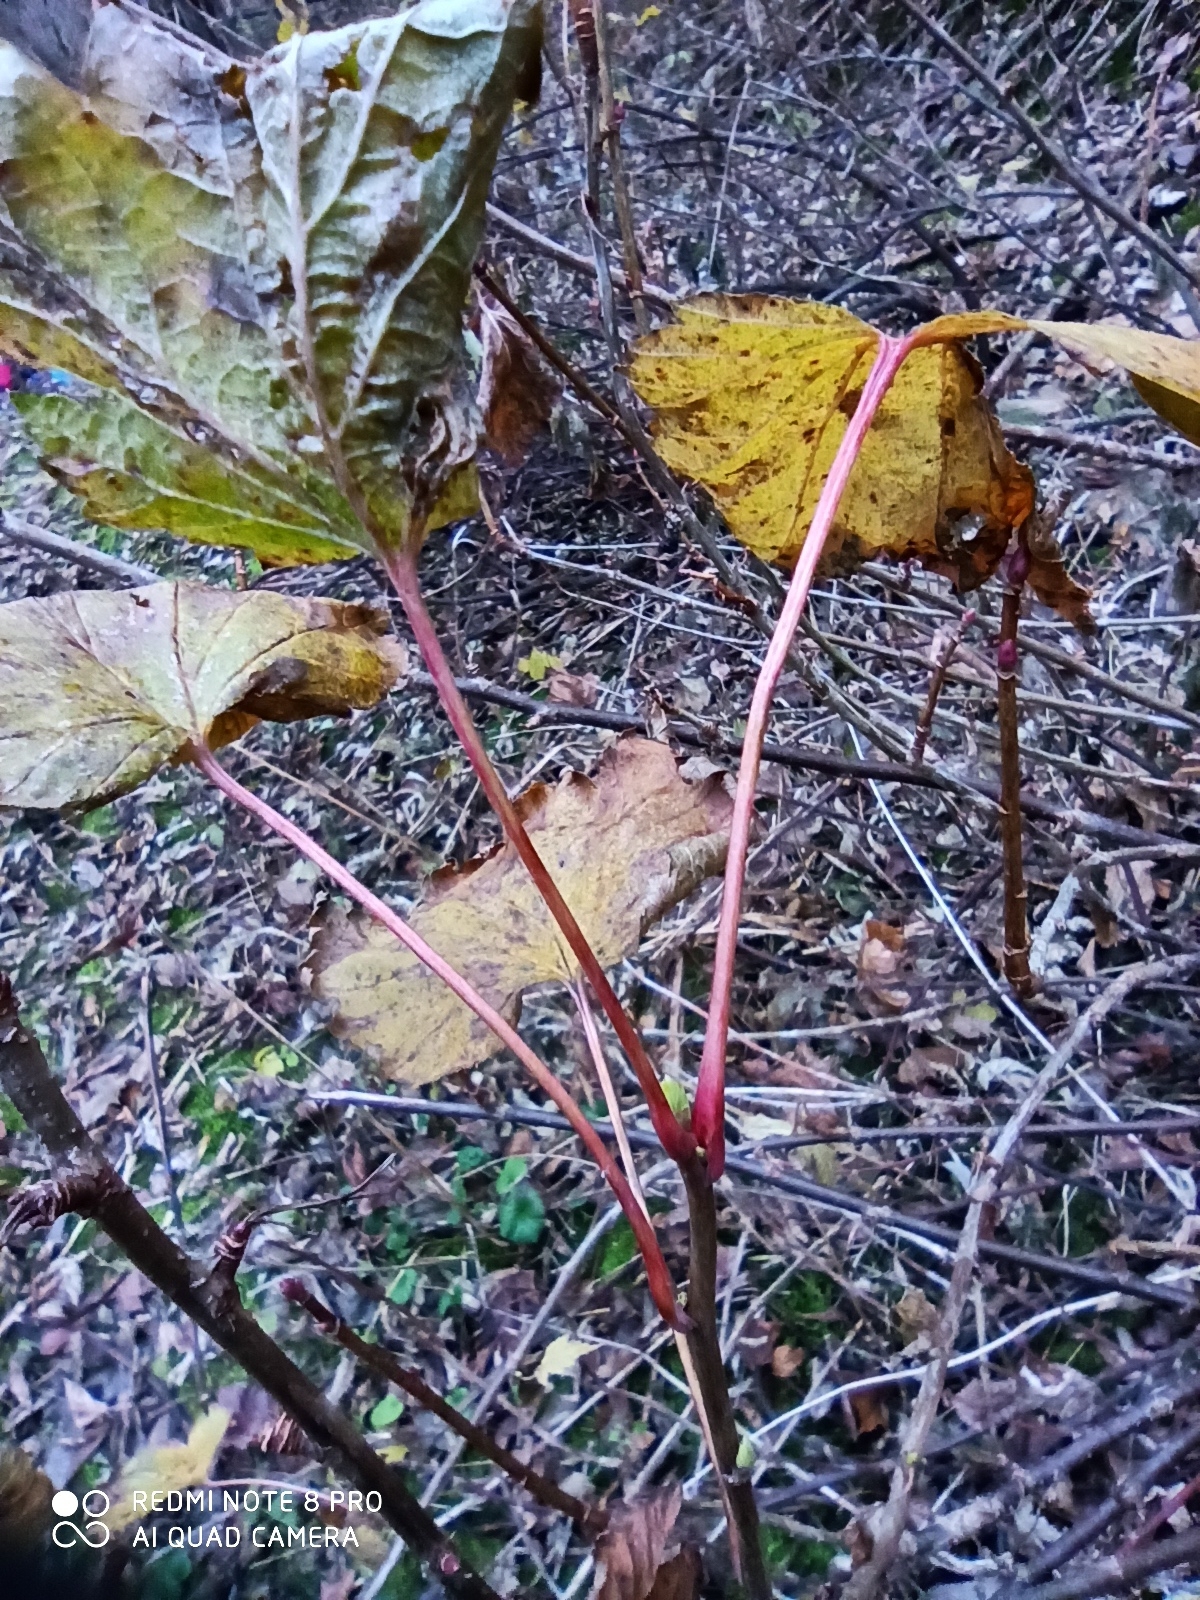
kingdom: Plantae
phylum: Tracheophyta
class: Magnoliopsida
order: Saxifragales
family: Grossulariaceae
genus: Ribes
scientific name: Ribes nigrum
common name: Black currant
